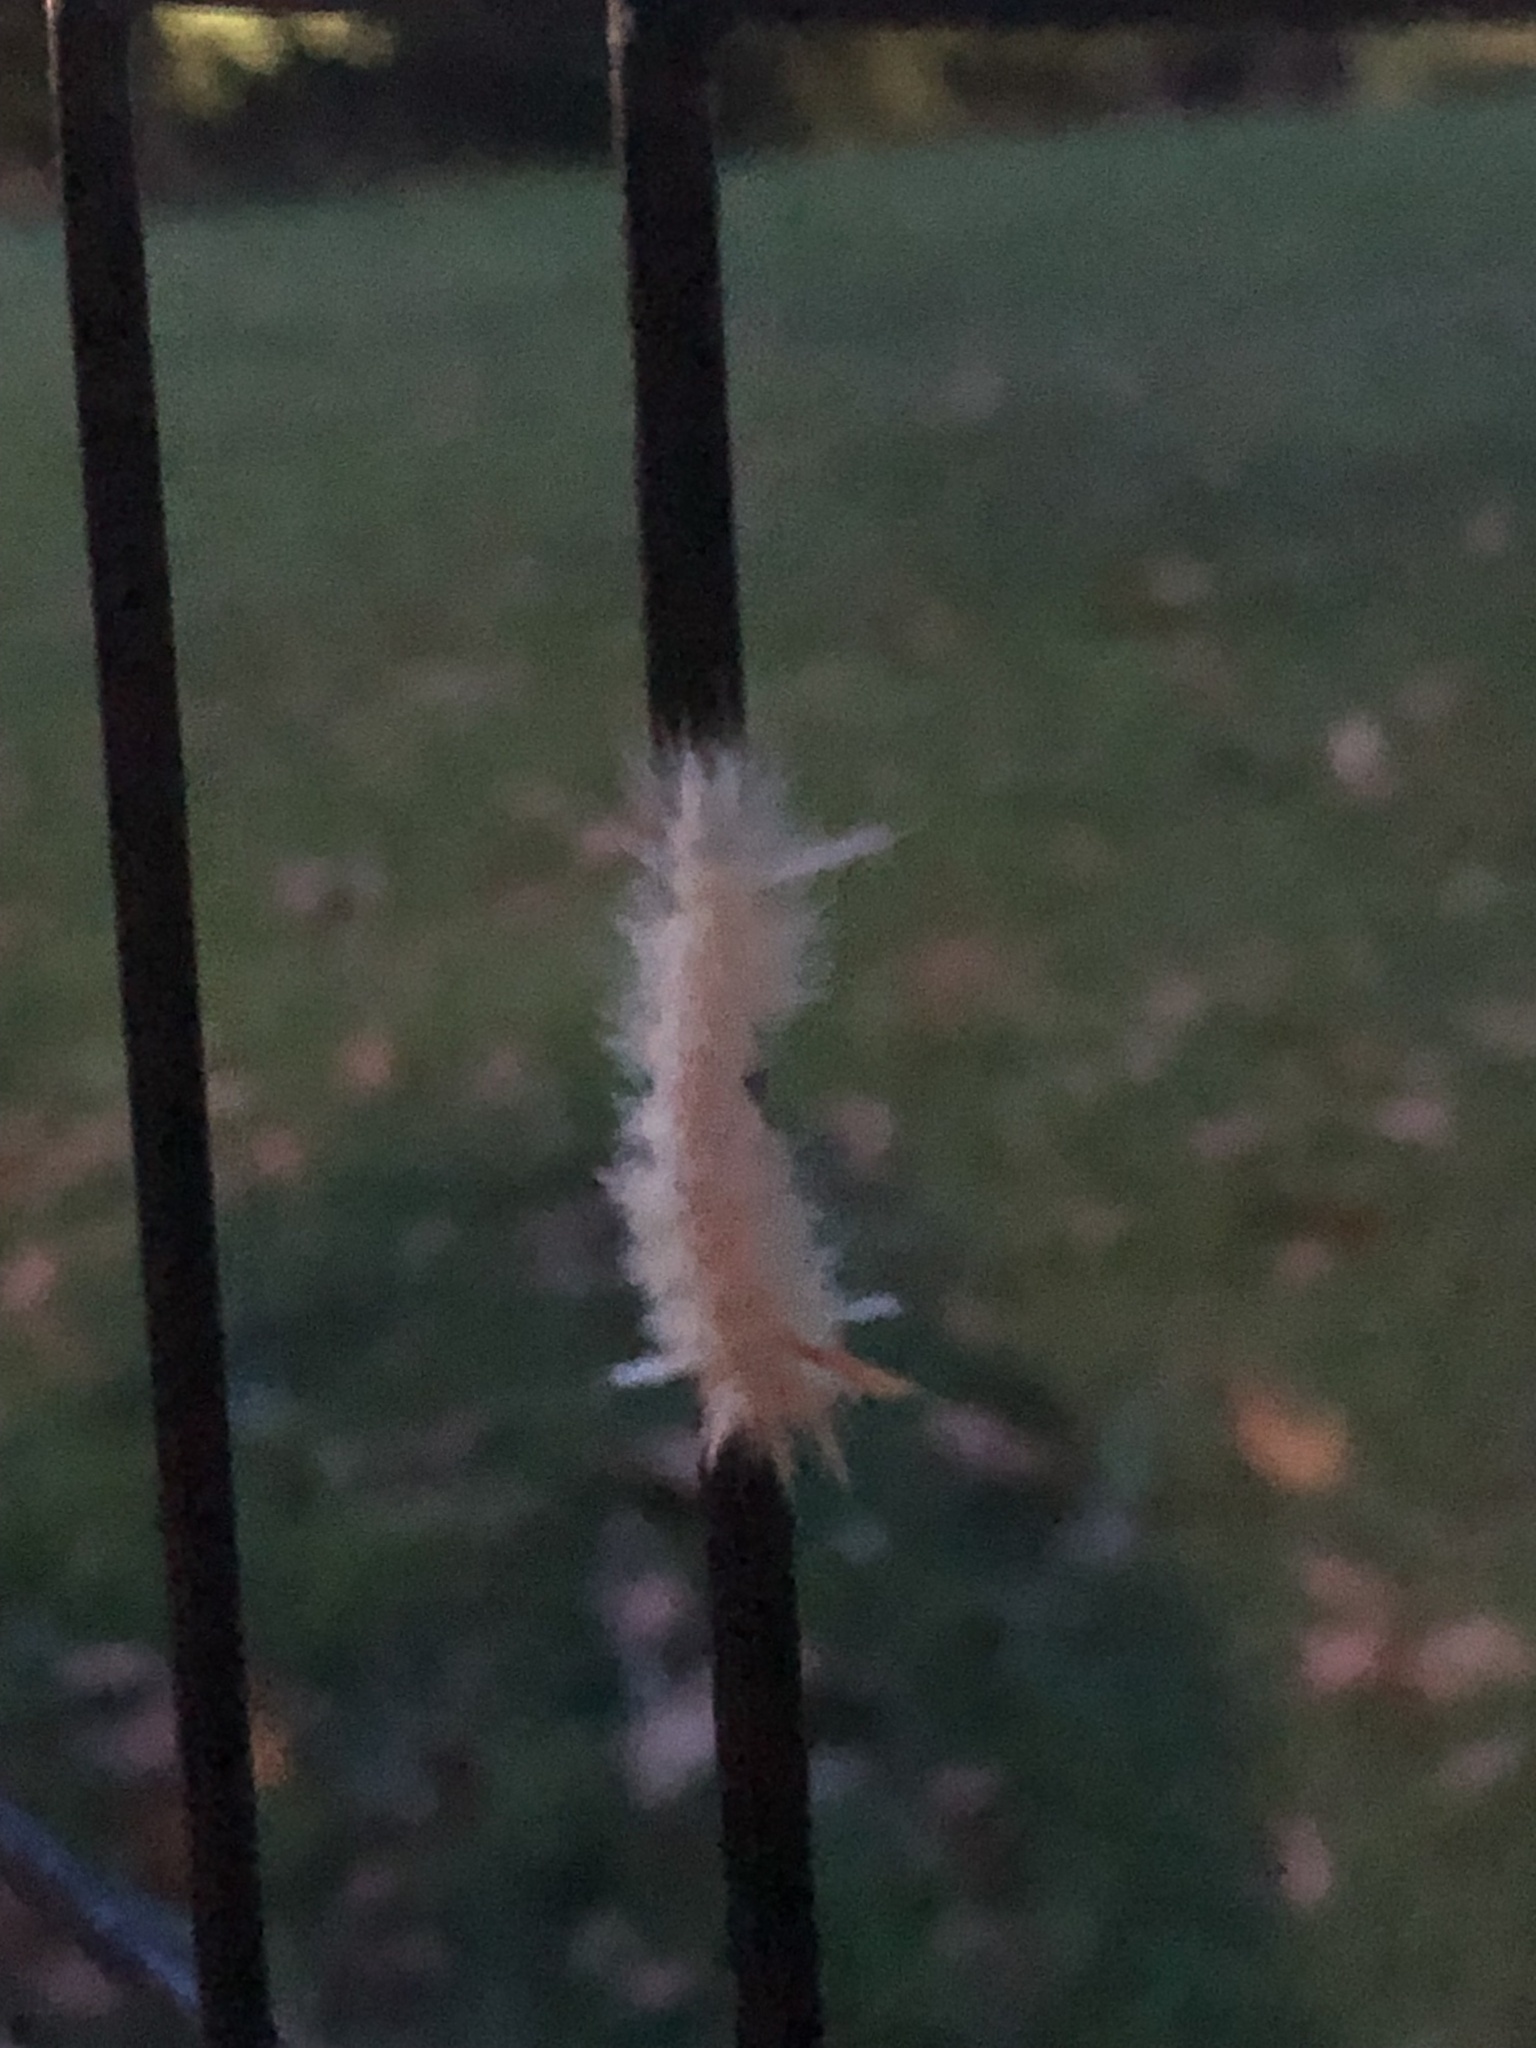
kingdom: Animalia
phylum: Arthropoda
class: Insecta
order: Lepidoptera
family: Erebidae
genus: Halysidota
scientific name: Halysidota harrisii
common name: Sycamore tussock moth
